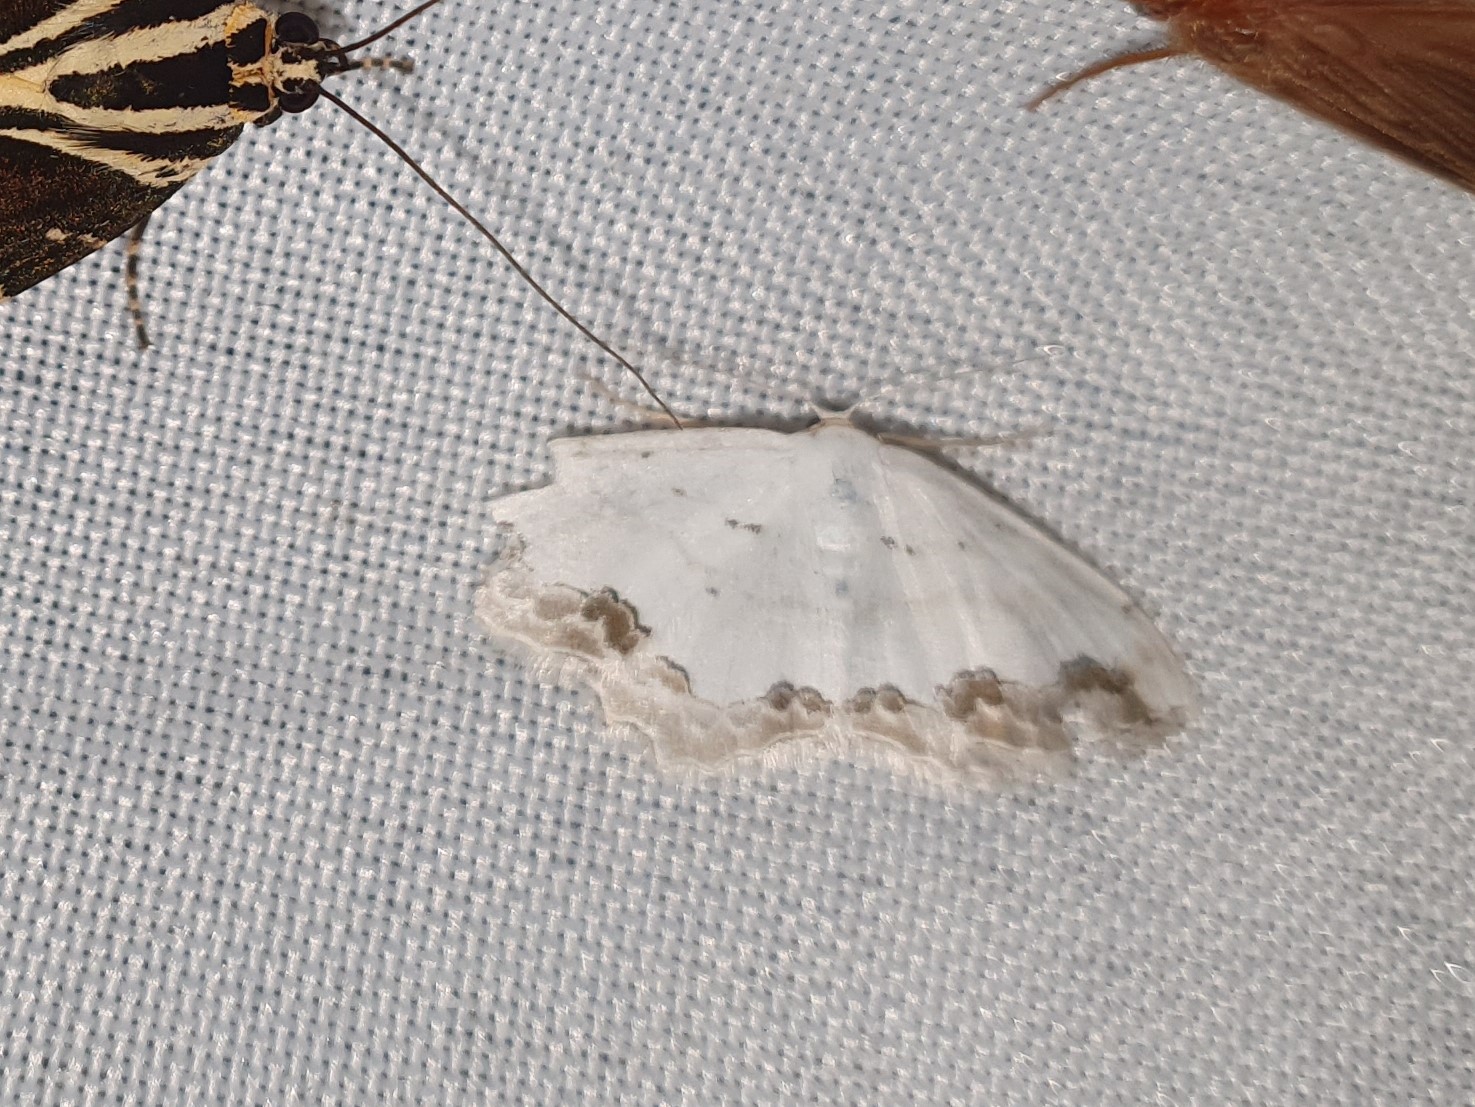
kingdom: Animalia
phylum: Arthropoda
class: Insecta
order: Lepidoptera
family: Geometridae
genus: Scopula
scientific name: Scopula ornata
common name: Lace border
